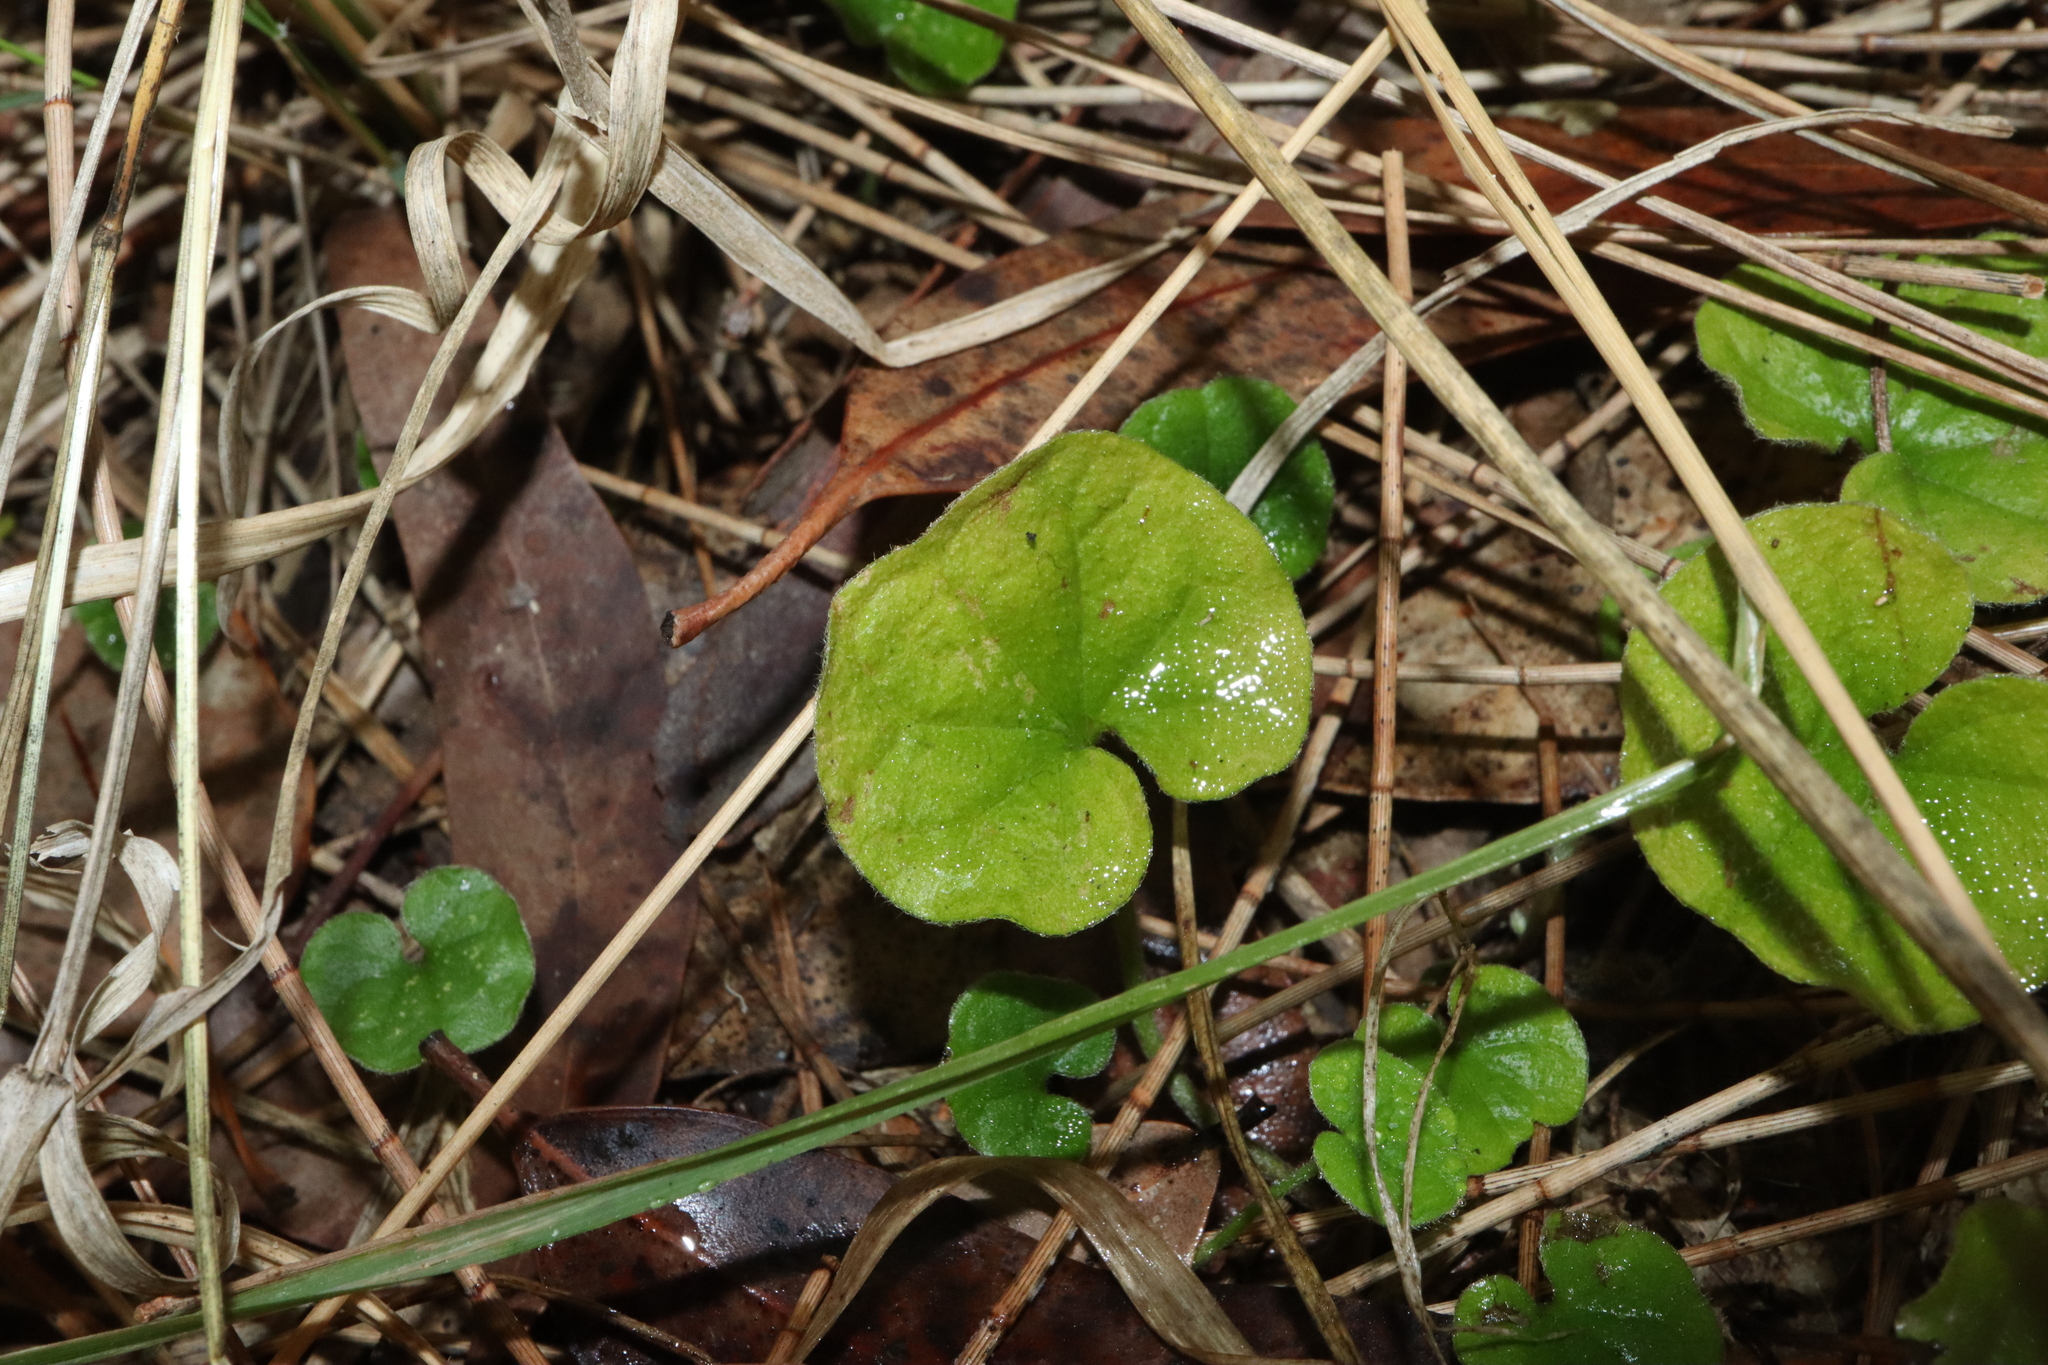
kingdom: Plantae
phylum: Tracheophyta
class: Magnoliopsida
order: Solanales
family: Convolvulaceae
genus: Dichondra
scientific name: Dichondra repens
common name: Kidneyweed
